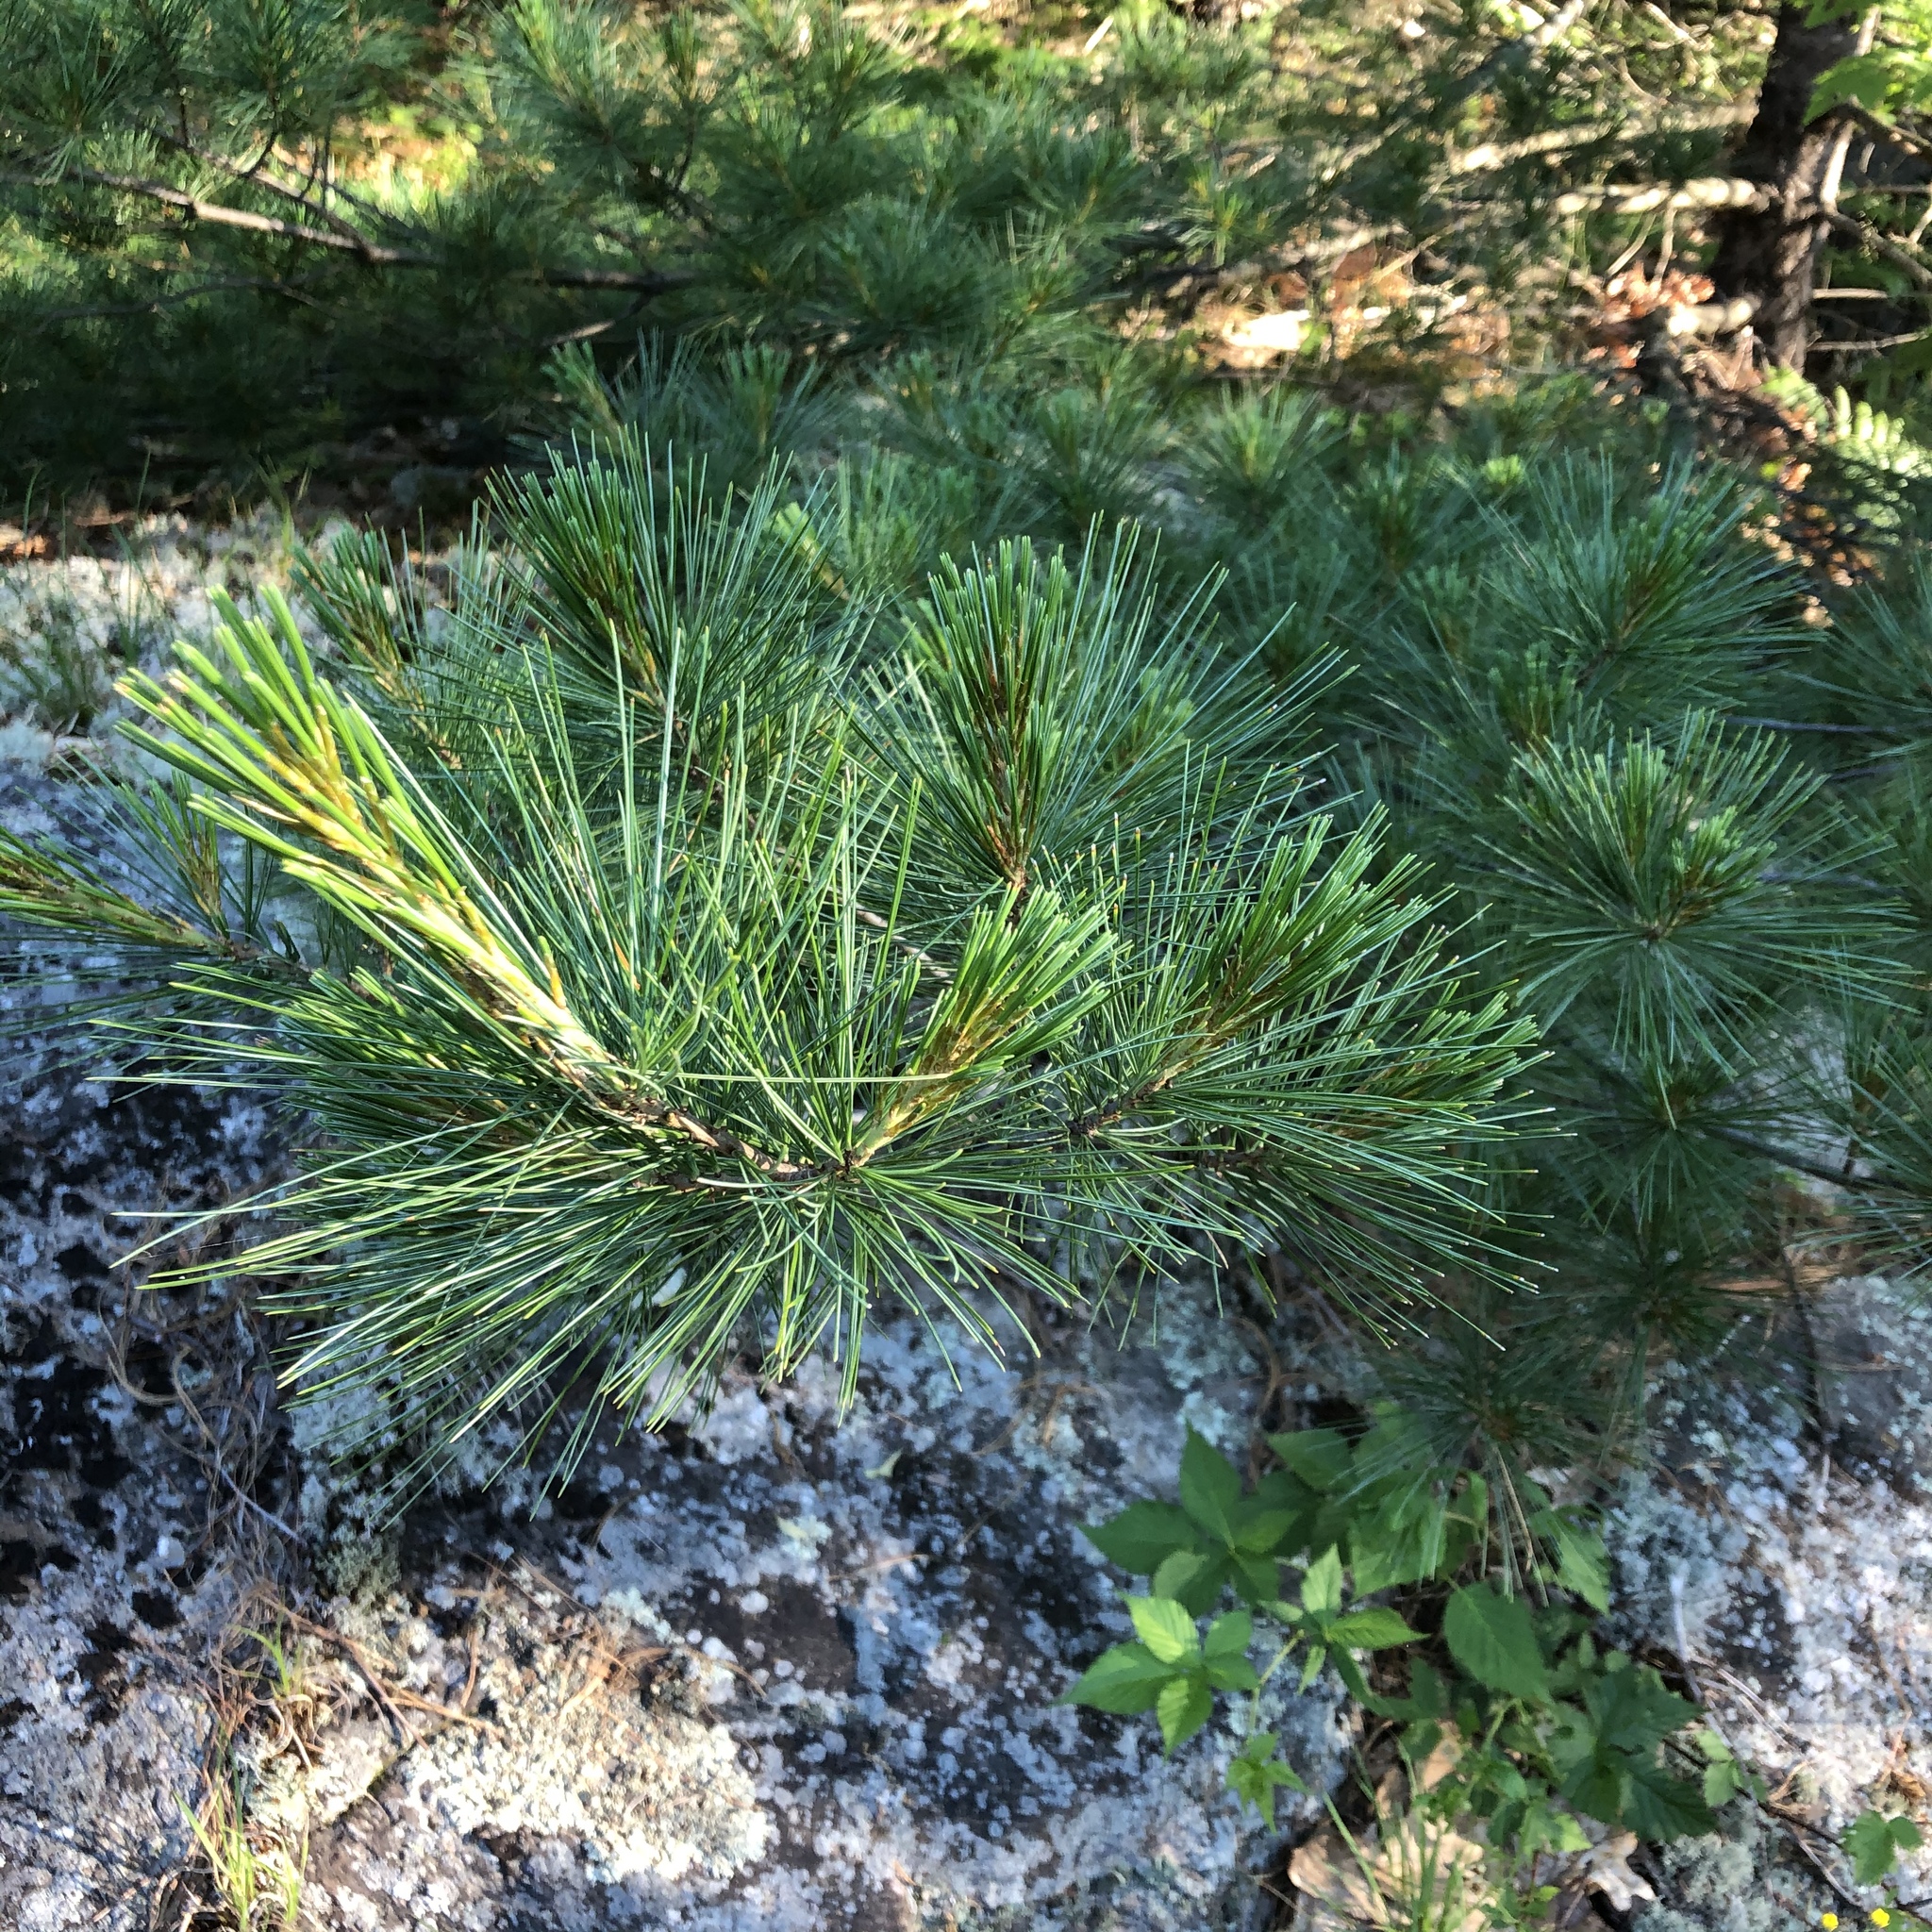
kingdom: Plantae
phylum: Tracheophyta
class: Pinopsida
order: Pinales
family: Pinaceae
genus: Pinus
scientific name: Pinus strobus
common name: Weymouth pine
